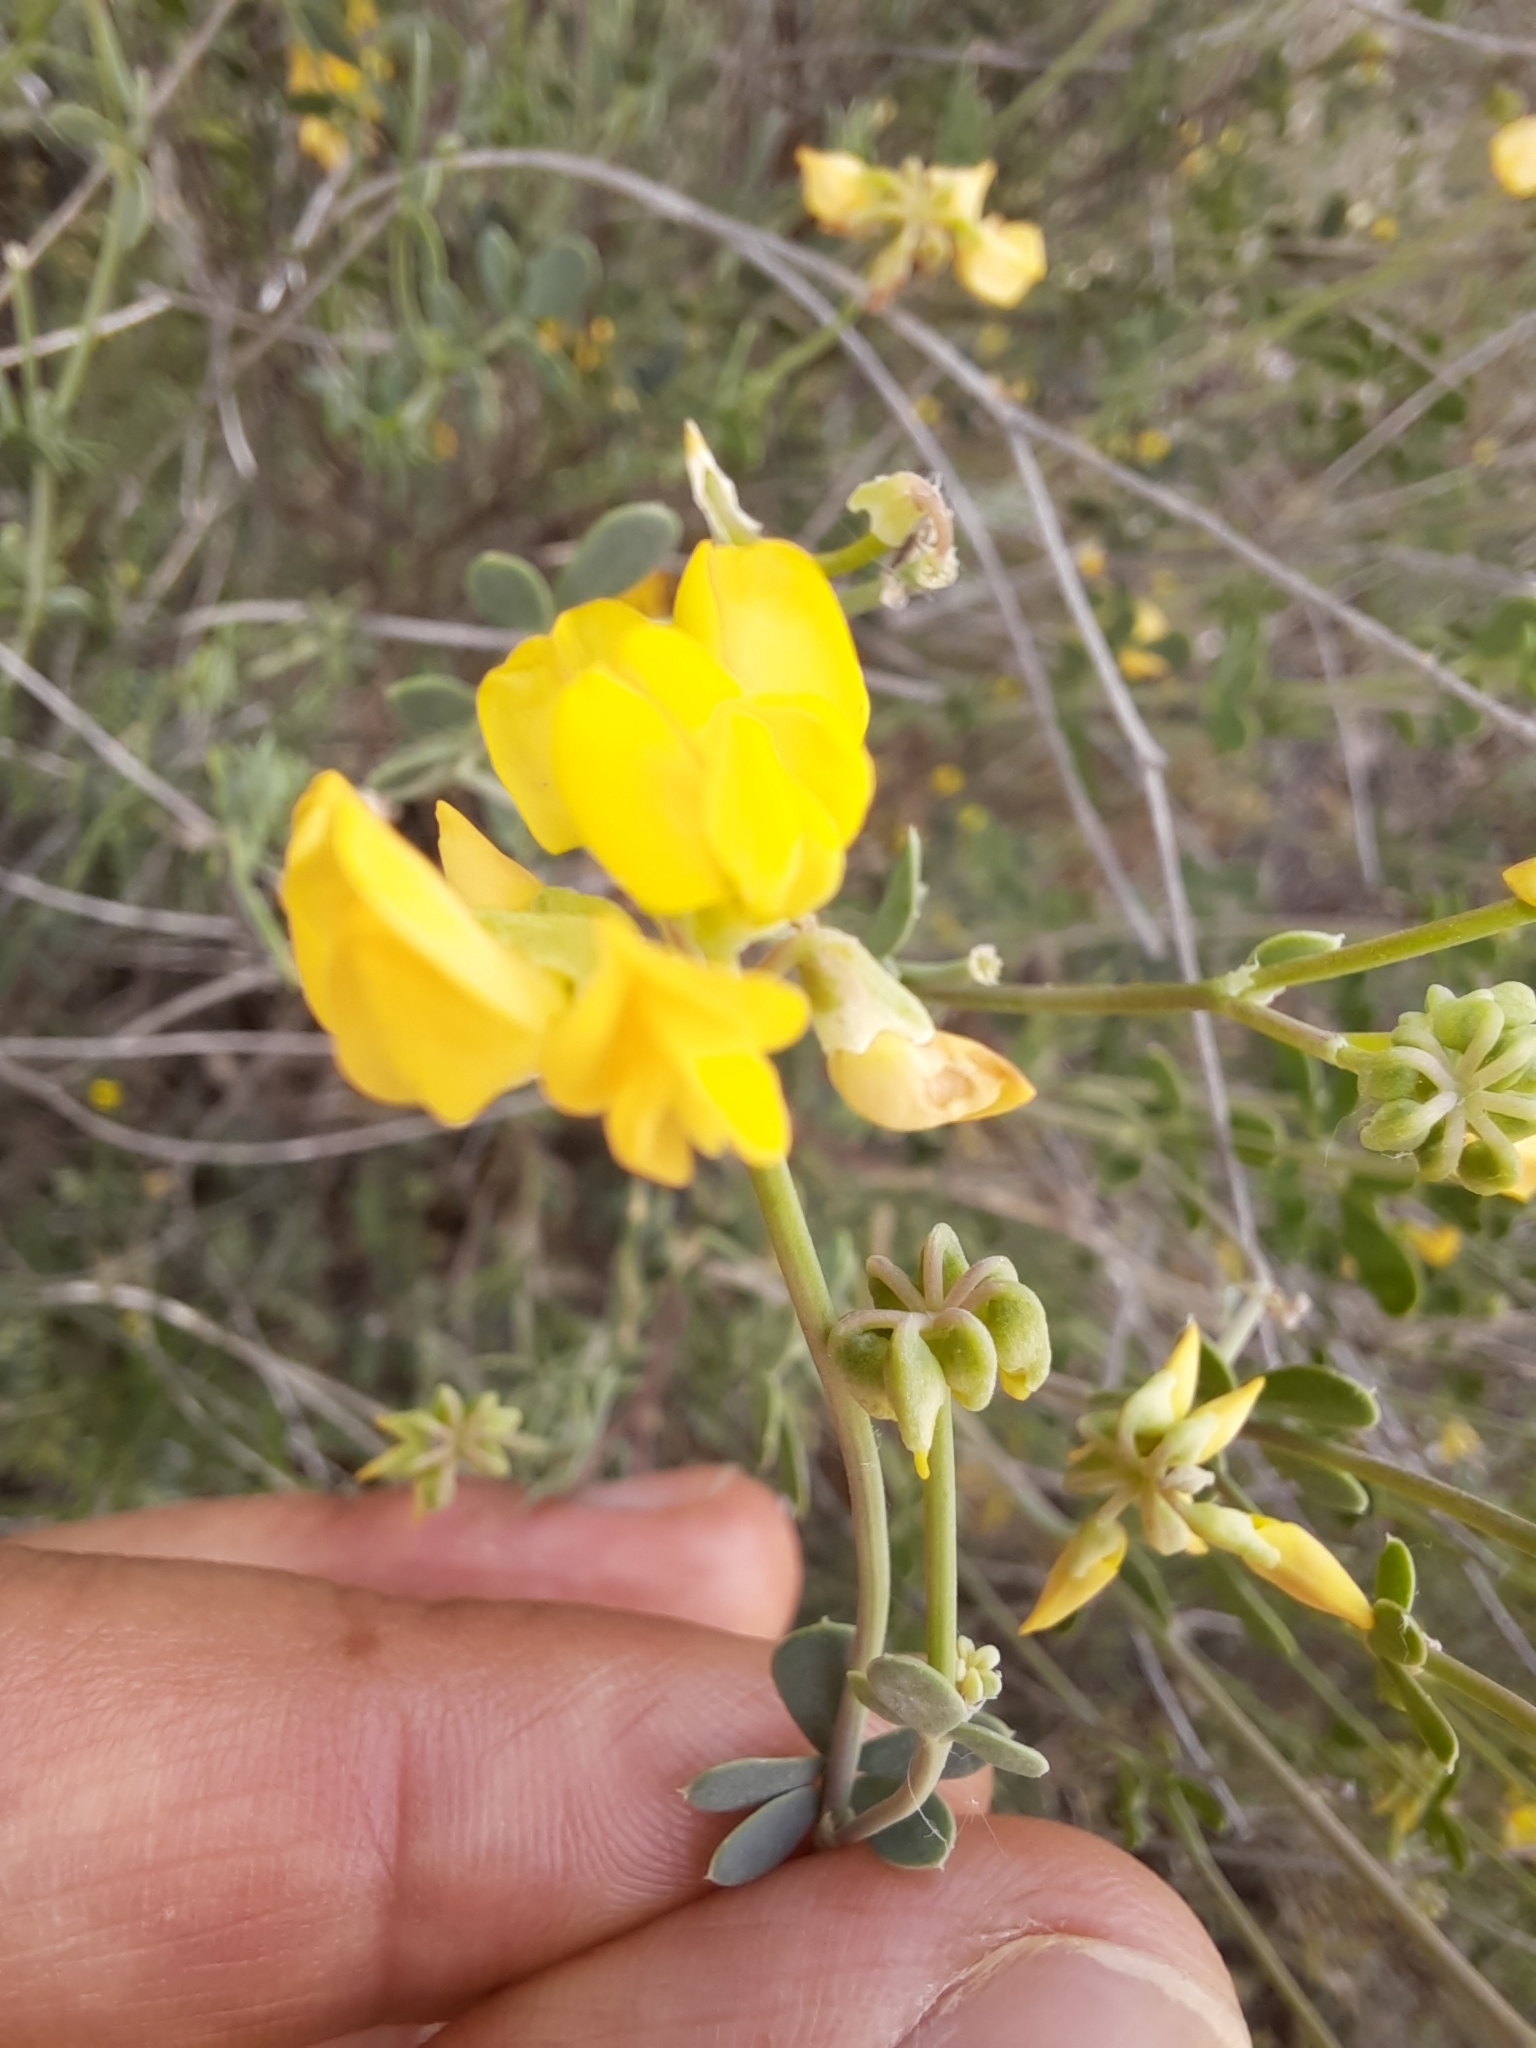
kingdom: Plantae
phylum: Tracheophyta
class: Magnoliopsida
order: Fabales
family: Fabaceae
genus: Coronilla
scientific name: Coronilla minima
